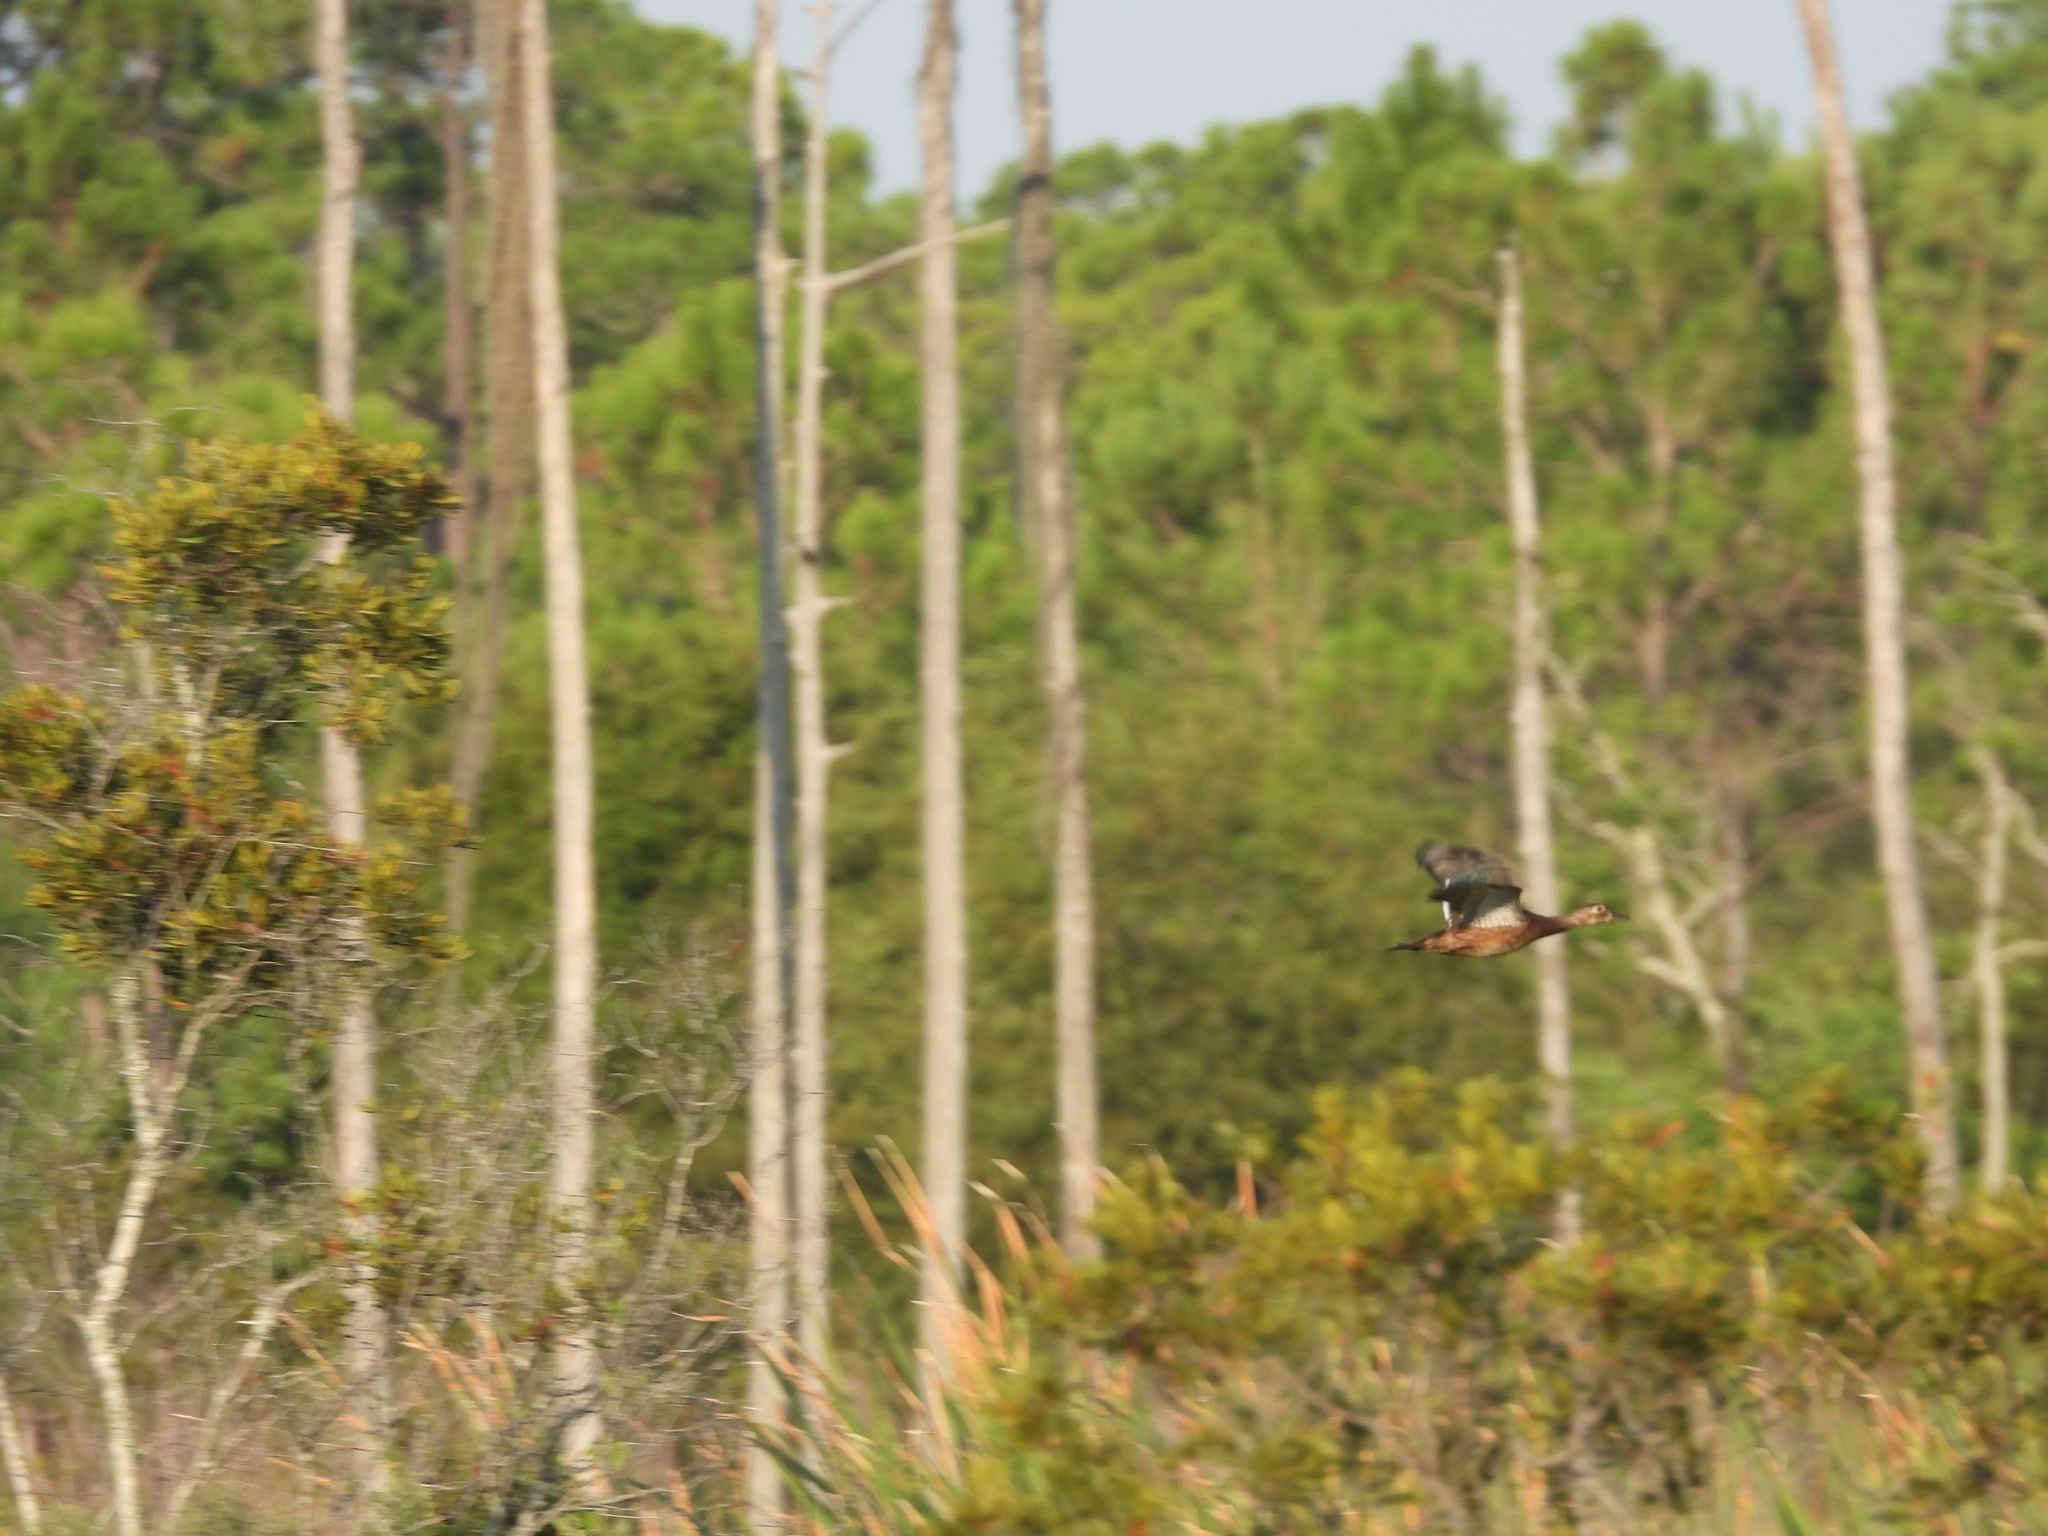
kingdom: Animalia
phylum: Chordata
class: Aves
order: Anseriformes
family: Anatidae
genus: Aix
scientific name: Aix sponsa
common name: Wood duck
